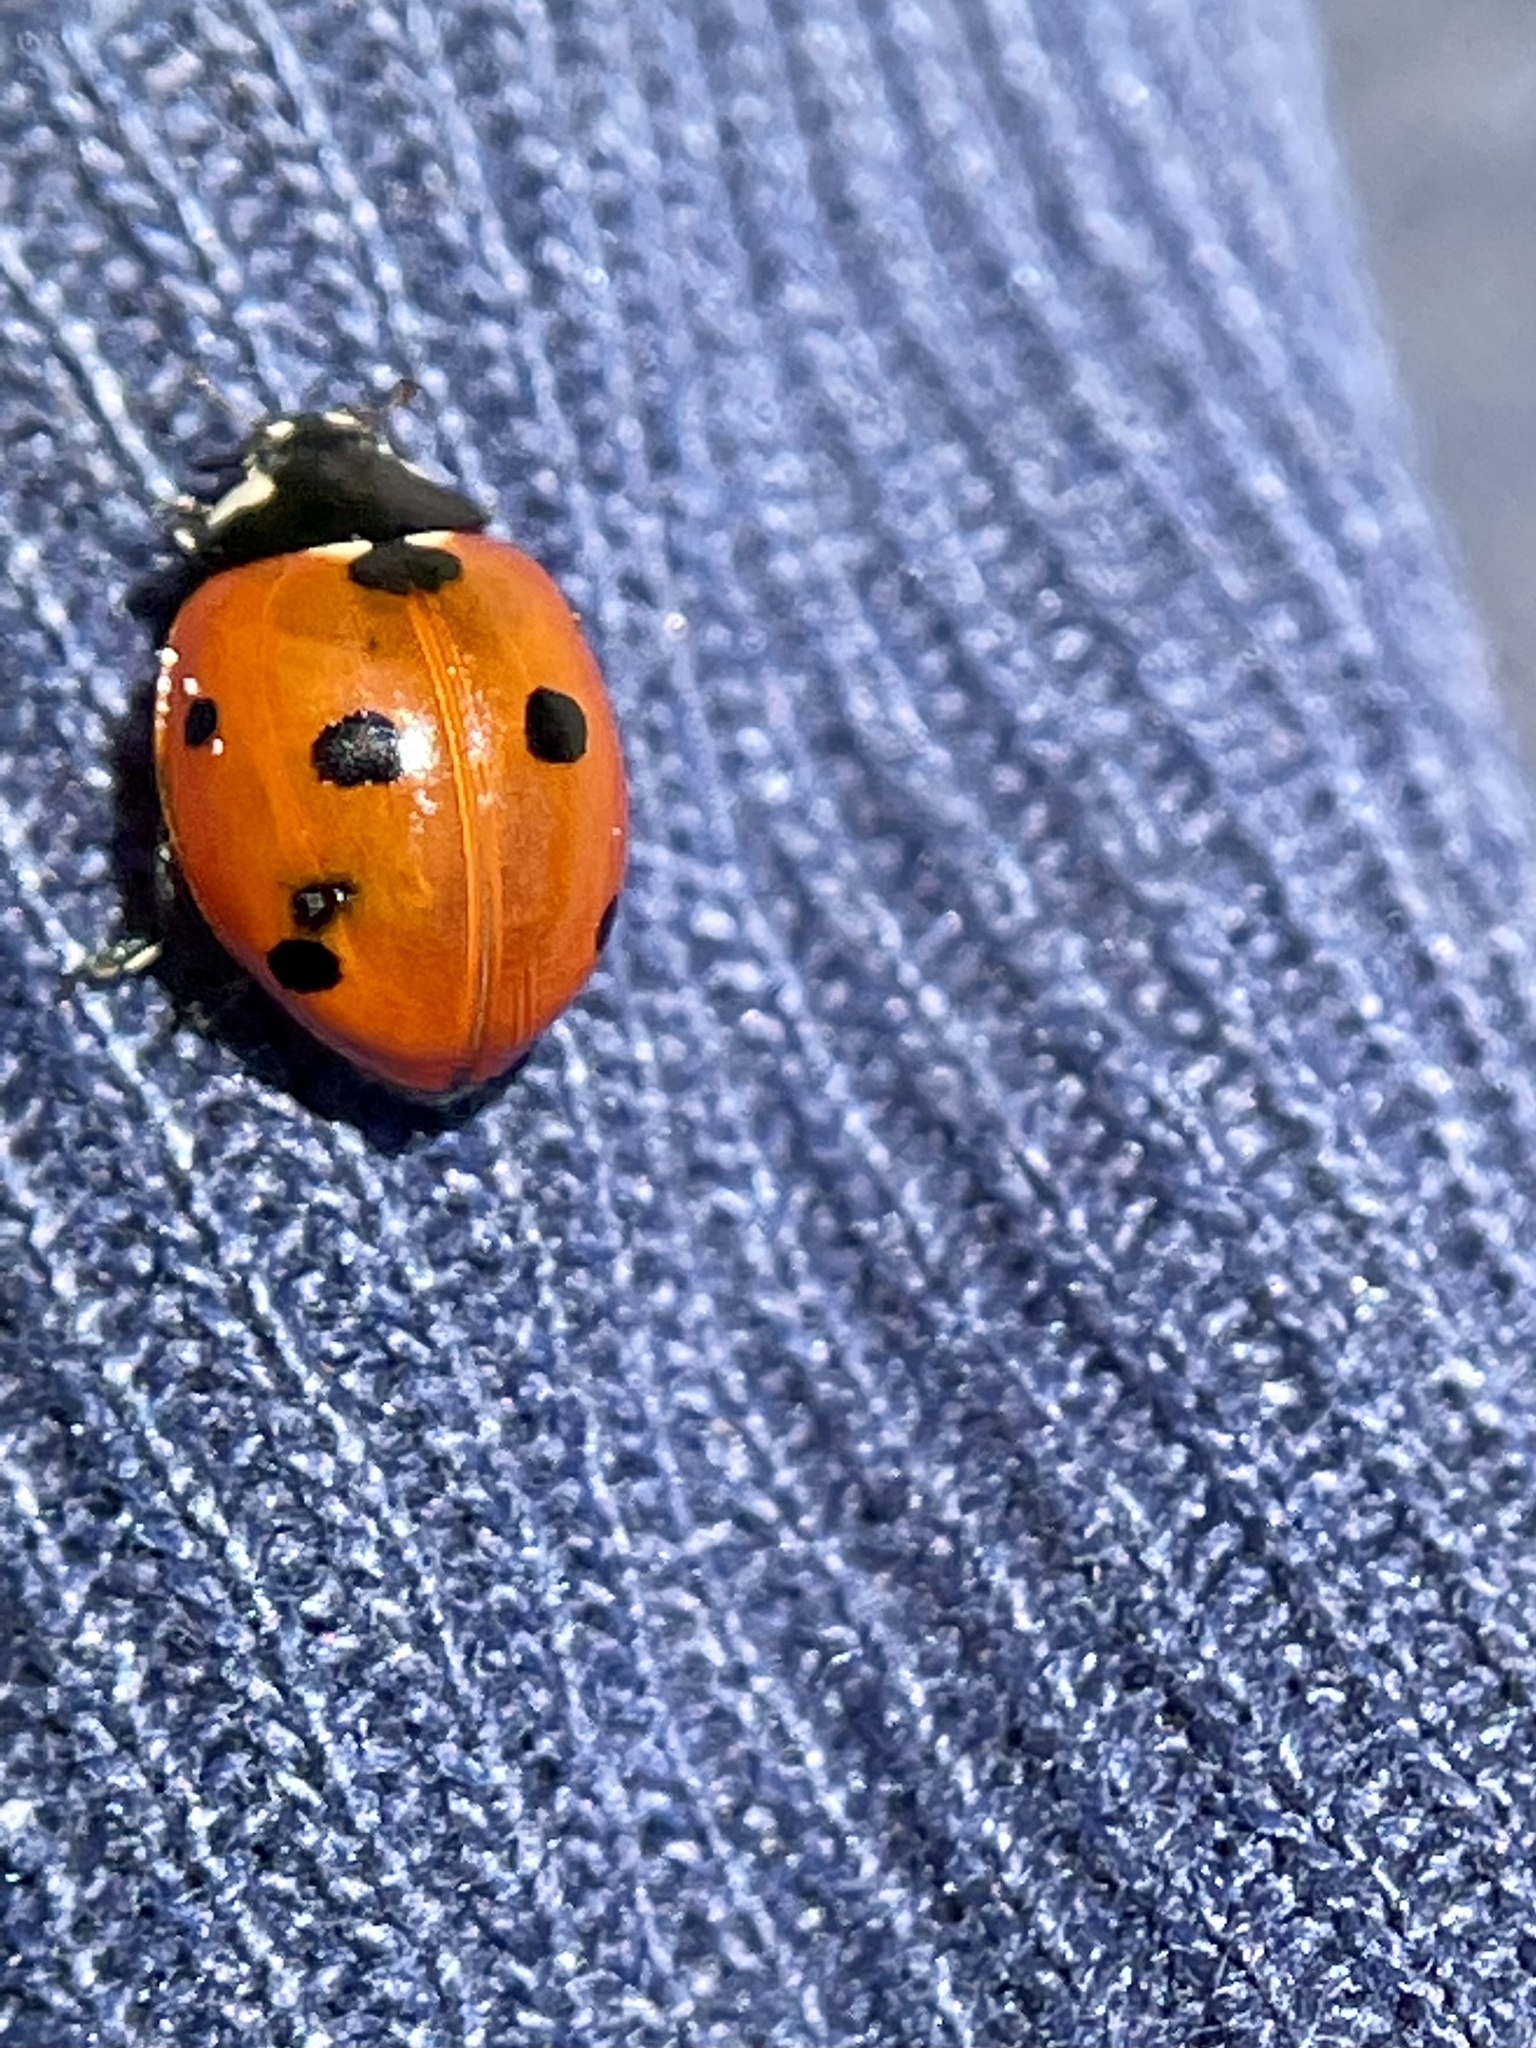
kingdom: Animalia
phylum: Arthropoda
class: Insecta
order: Coleoptera
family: Coccinellidae
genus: Coccinella
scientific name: Coccinella septempunctata
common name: Sevenspotted lady beetle
